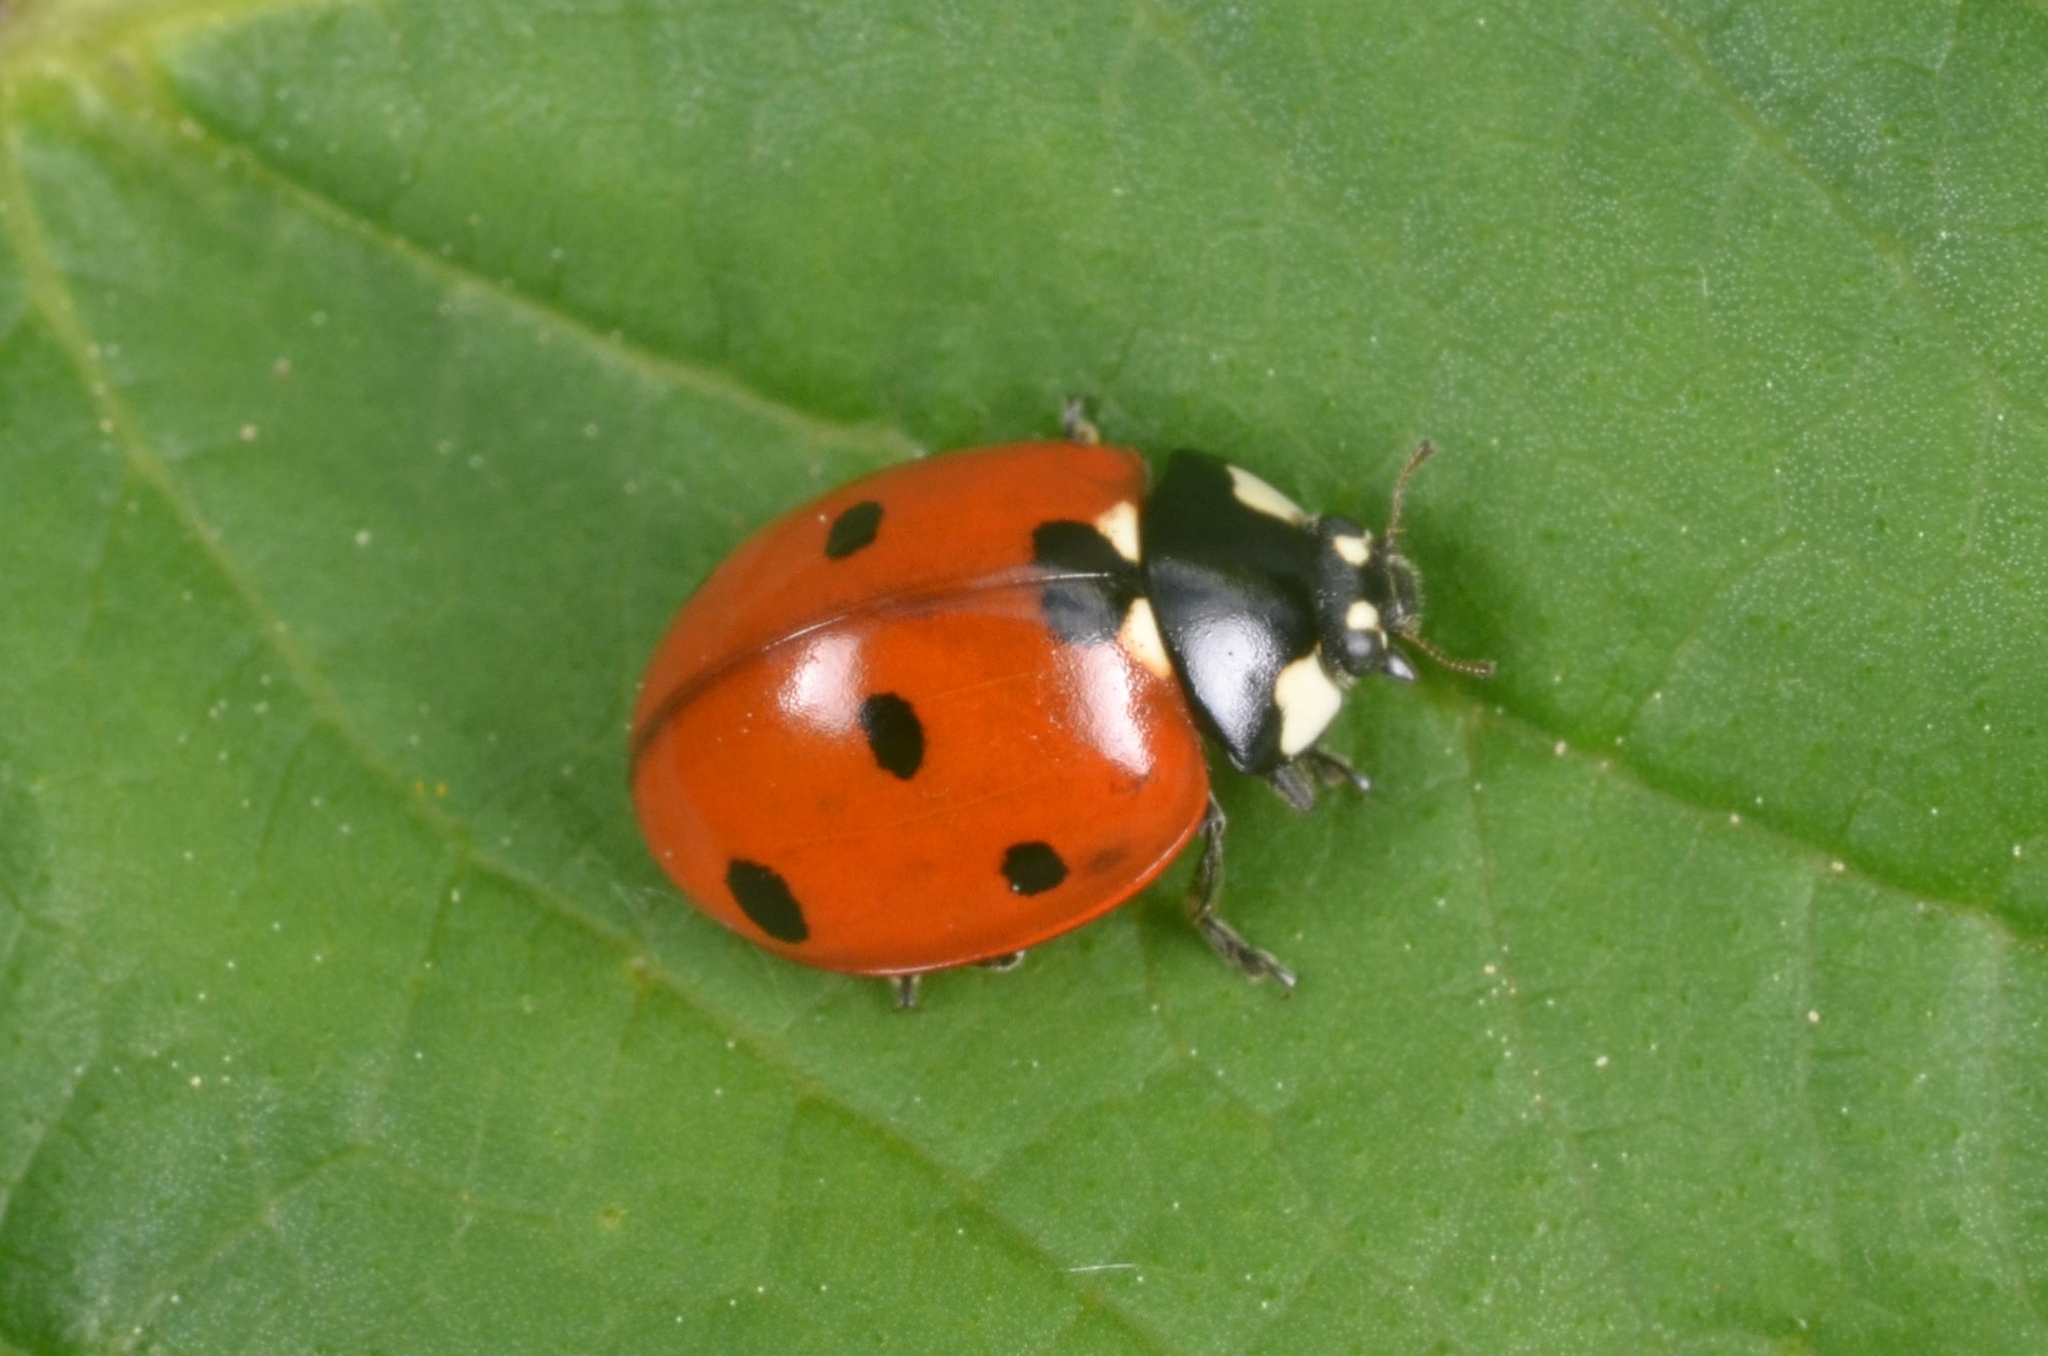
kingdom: Animalia
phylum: Arthropoda
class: Insecta
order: Coleoptera
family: Coccinellidae
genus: Coccinella
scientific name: Coccinella septempunctata
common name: Sevenspotted lady beetle
